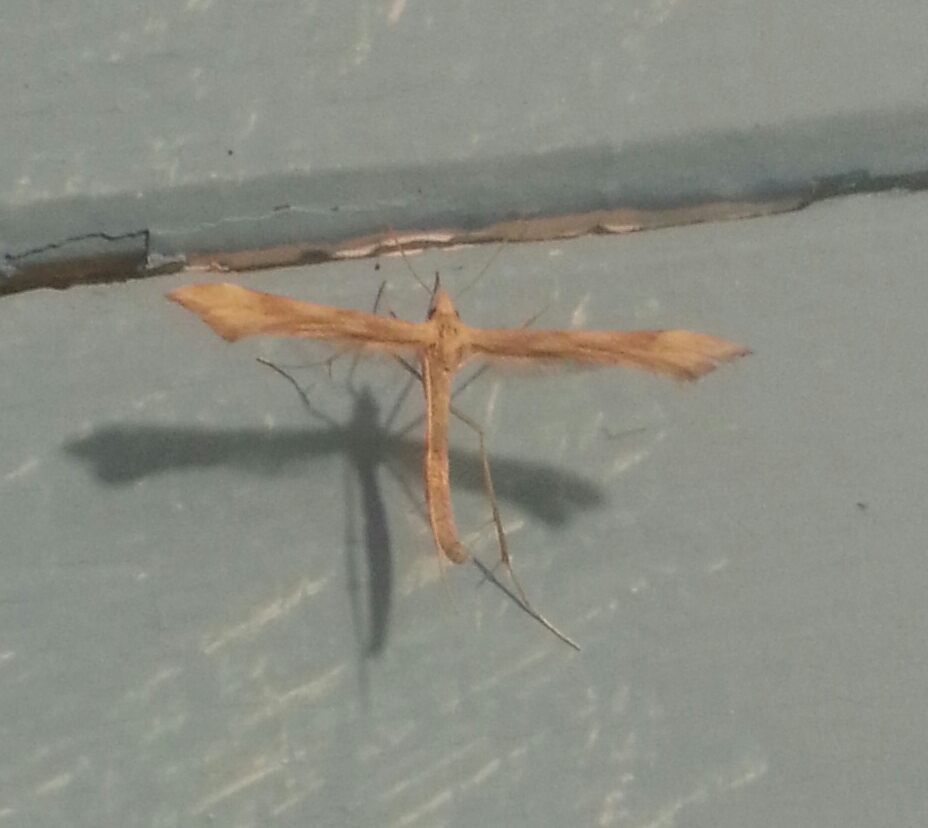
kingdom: Animalia
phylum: Arthropoda
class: Insecta
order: Lepidoptera
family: Pterophoridae
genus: Gillmeria
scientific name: Gillmeria pallidactyla
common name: Yarrow plume
